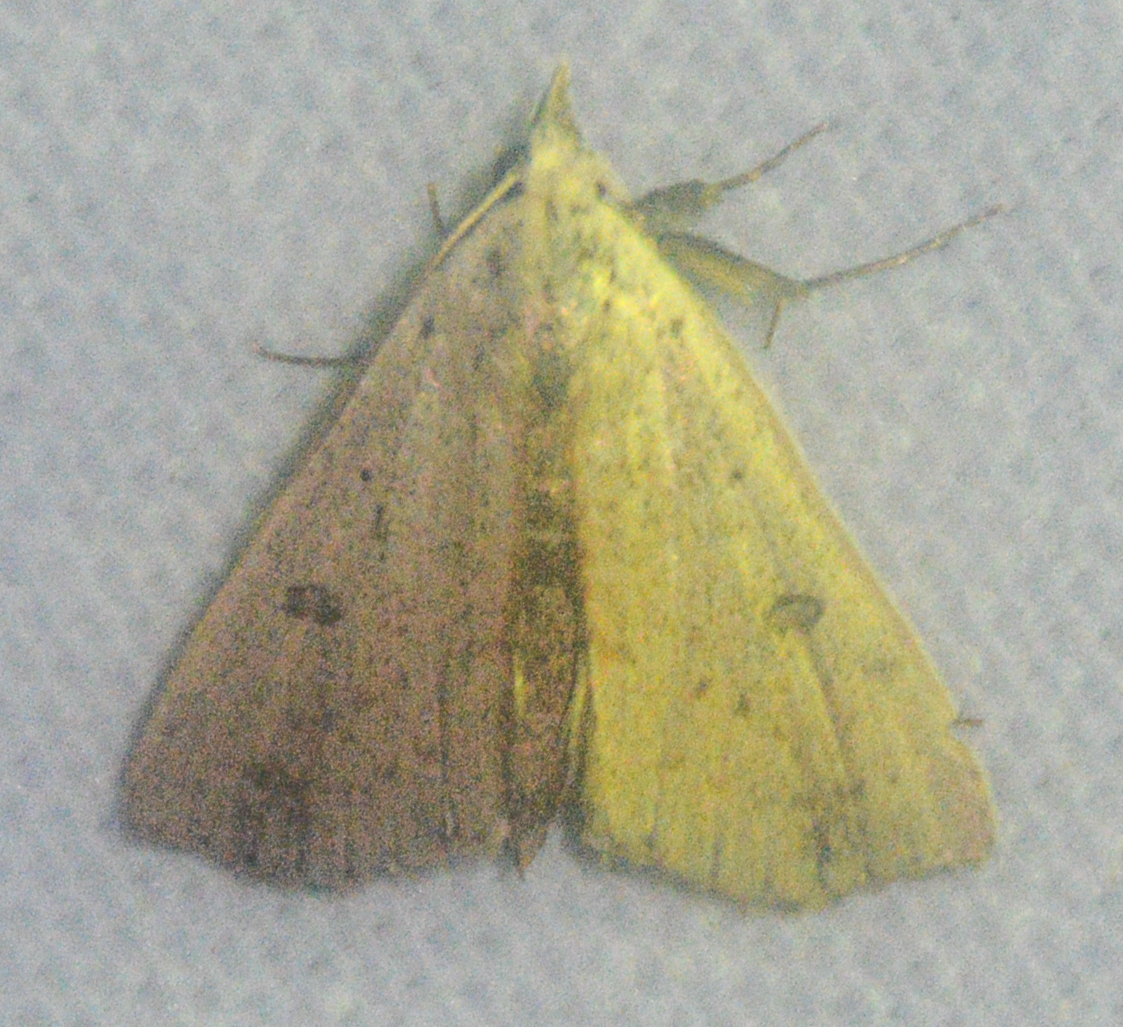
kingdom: Animalia
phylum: Arthropoda
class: Insecta
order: Lepidoptera
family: Erebidae
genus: Scolecocampa
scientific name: Scolecocampa liburna
